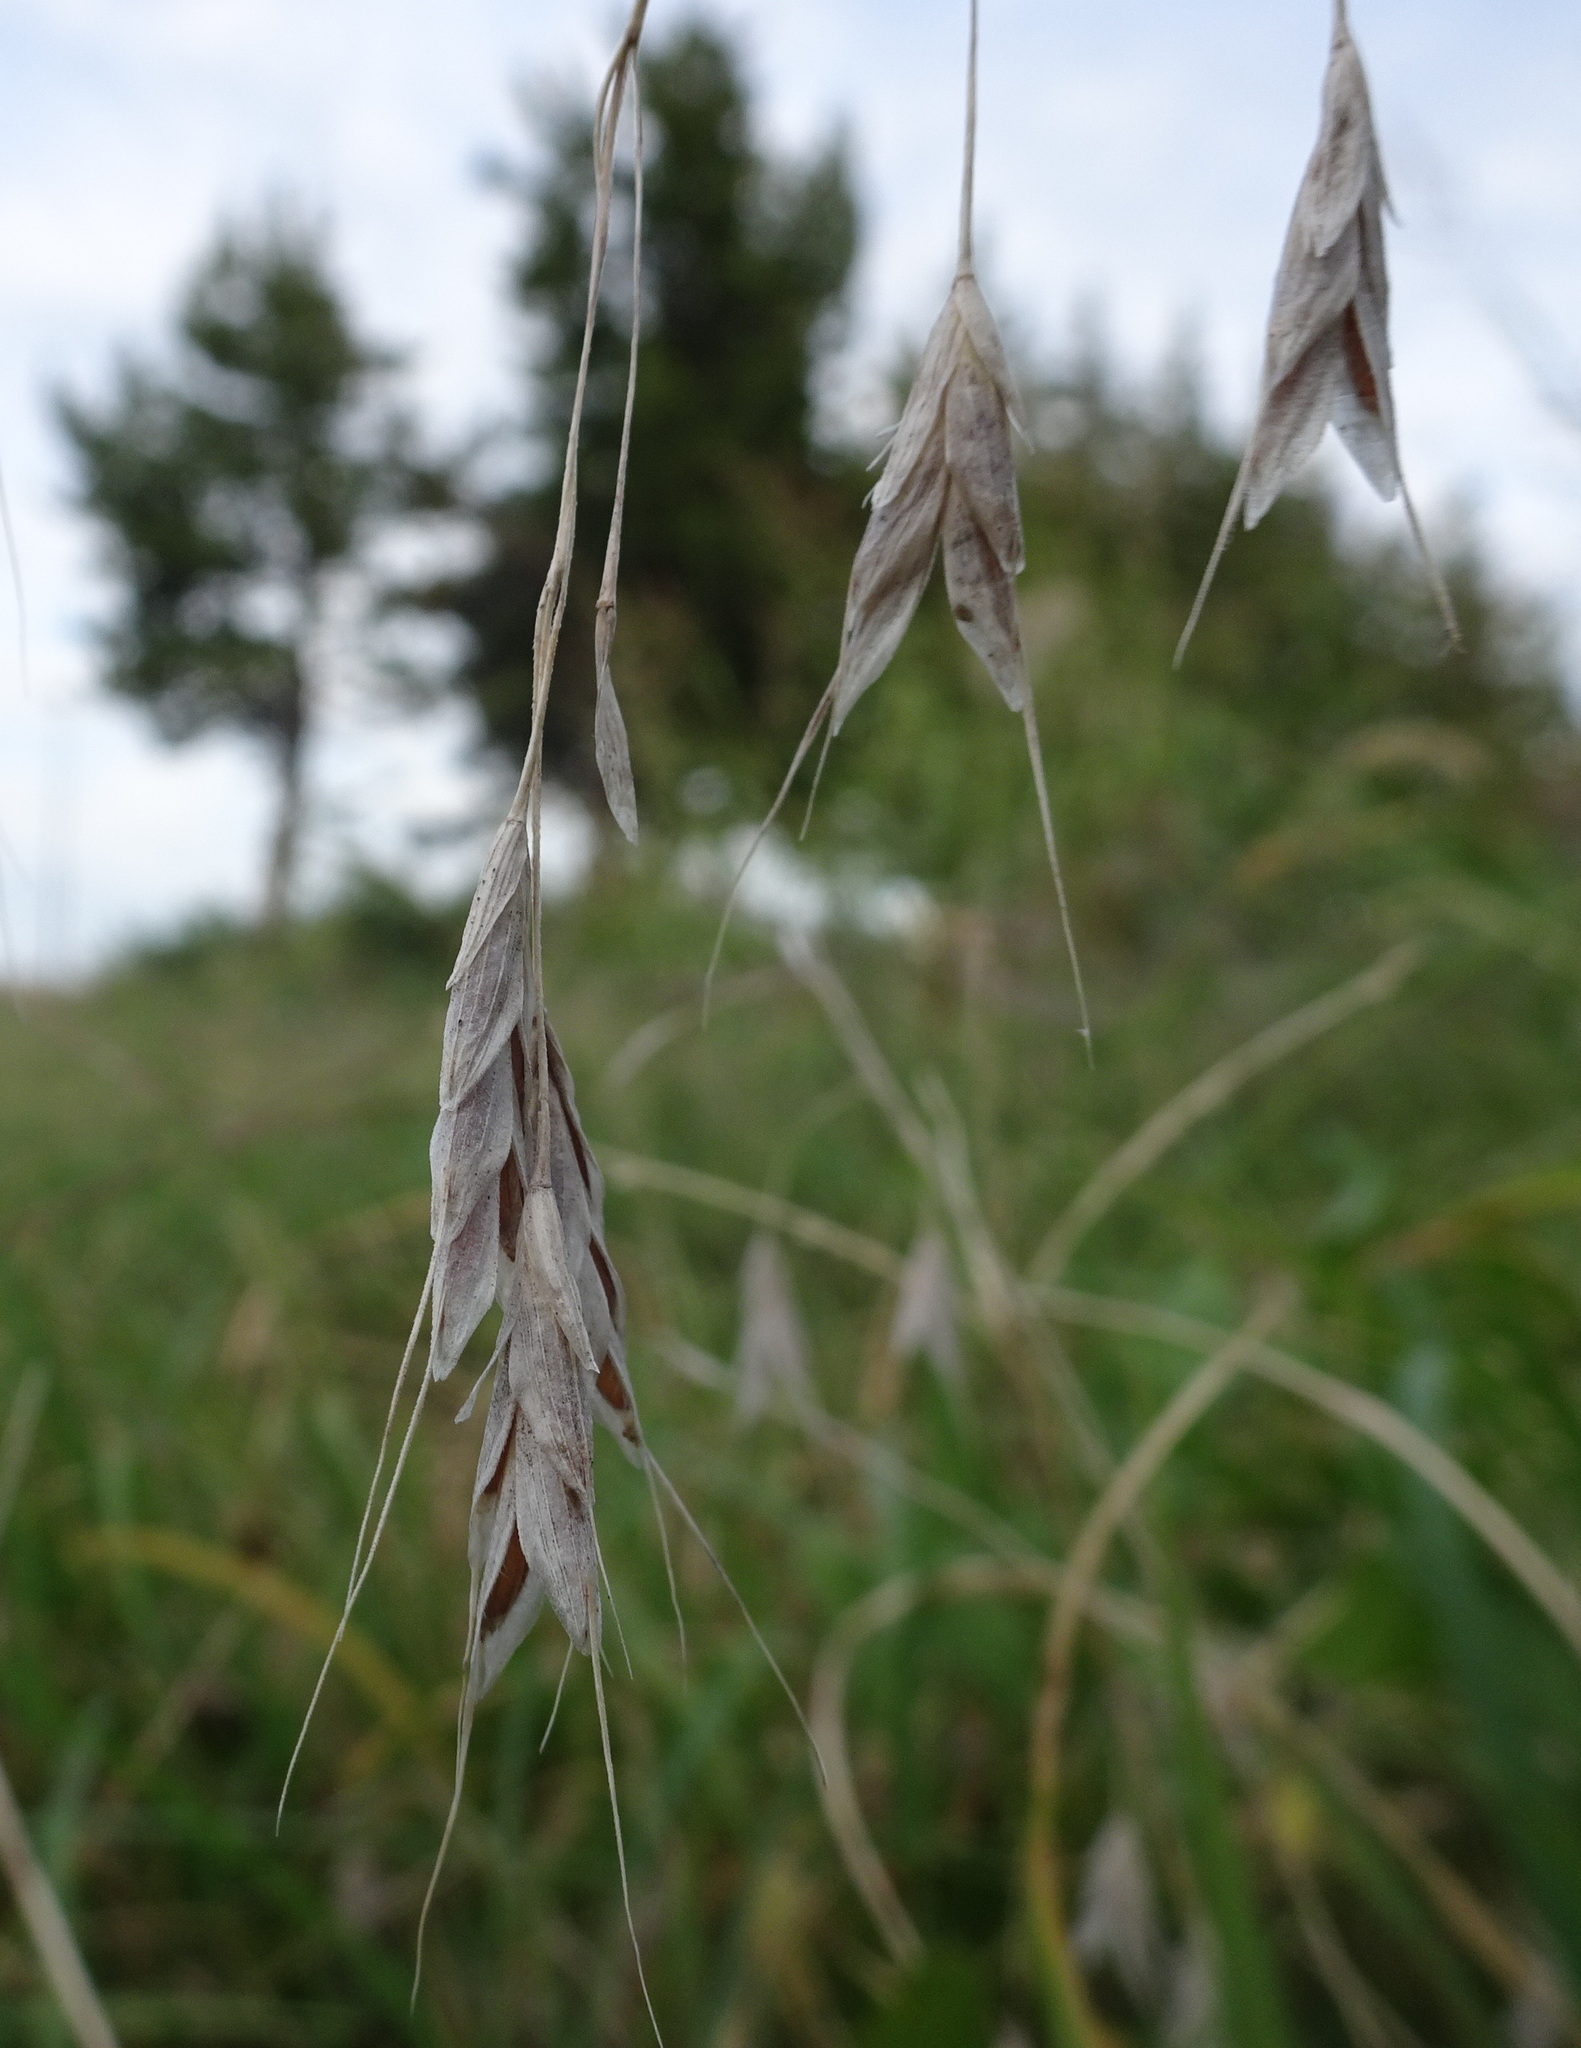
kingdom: Plantae
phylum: Tracheophyta
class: Liliopsida
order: Poales
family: Poaceae
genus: Bromus
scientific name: Bromus japonicus
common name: Japanese brome
